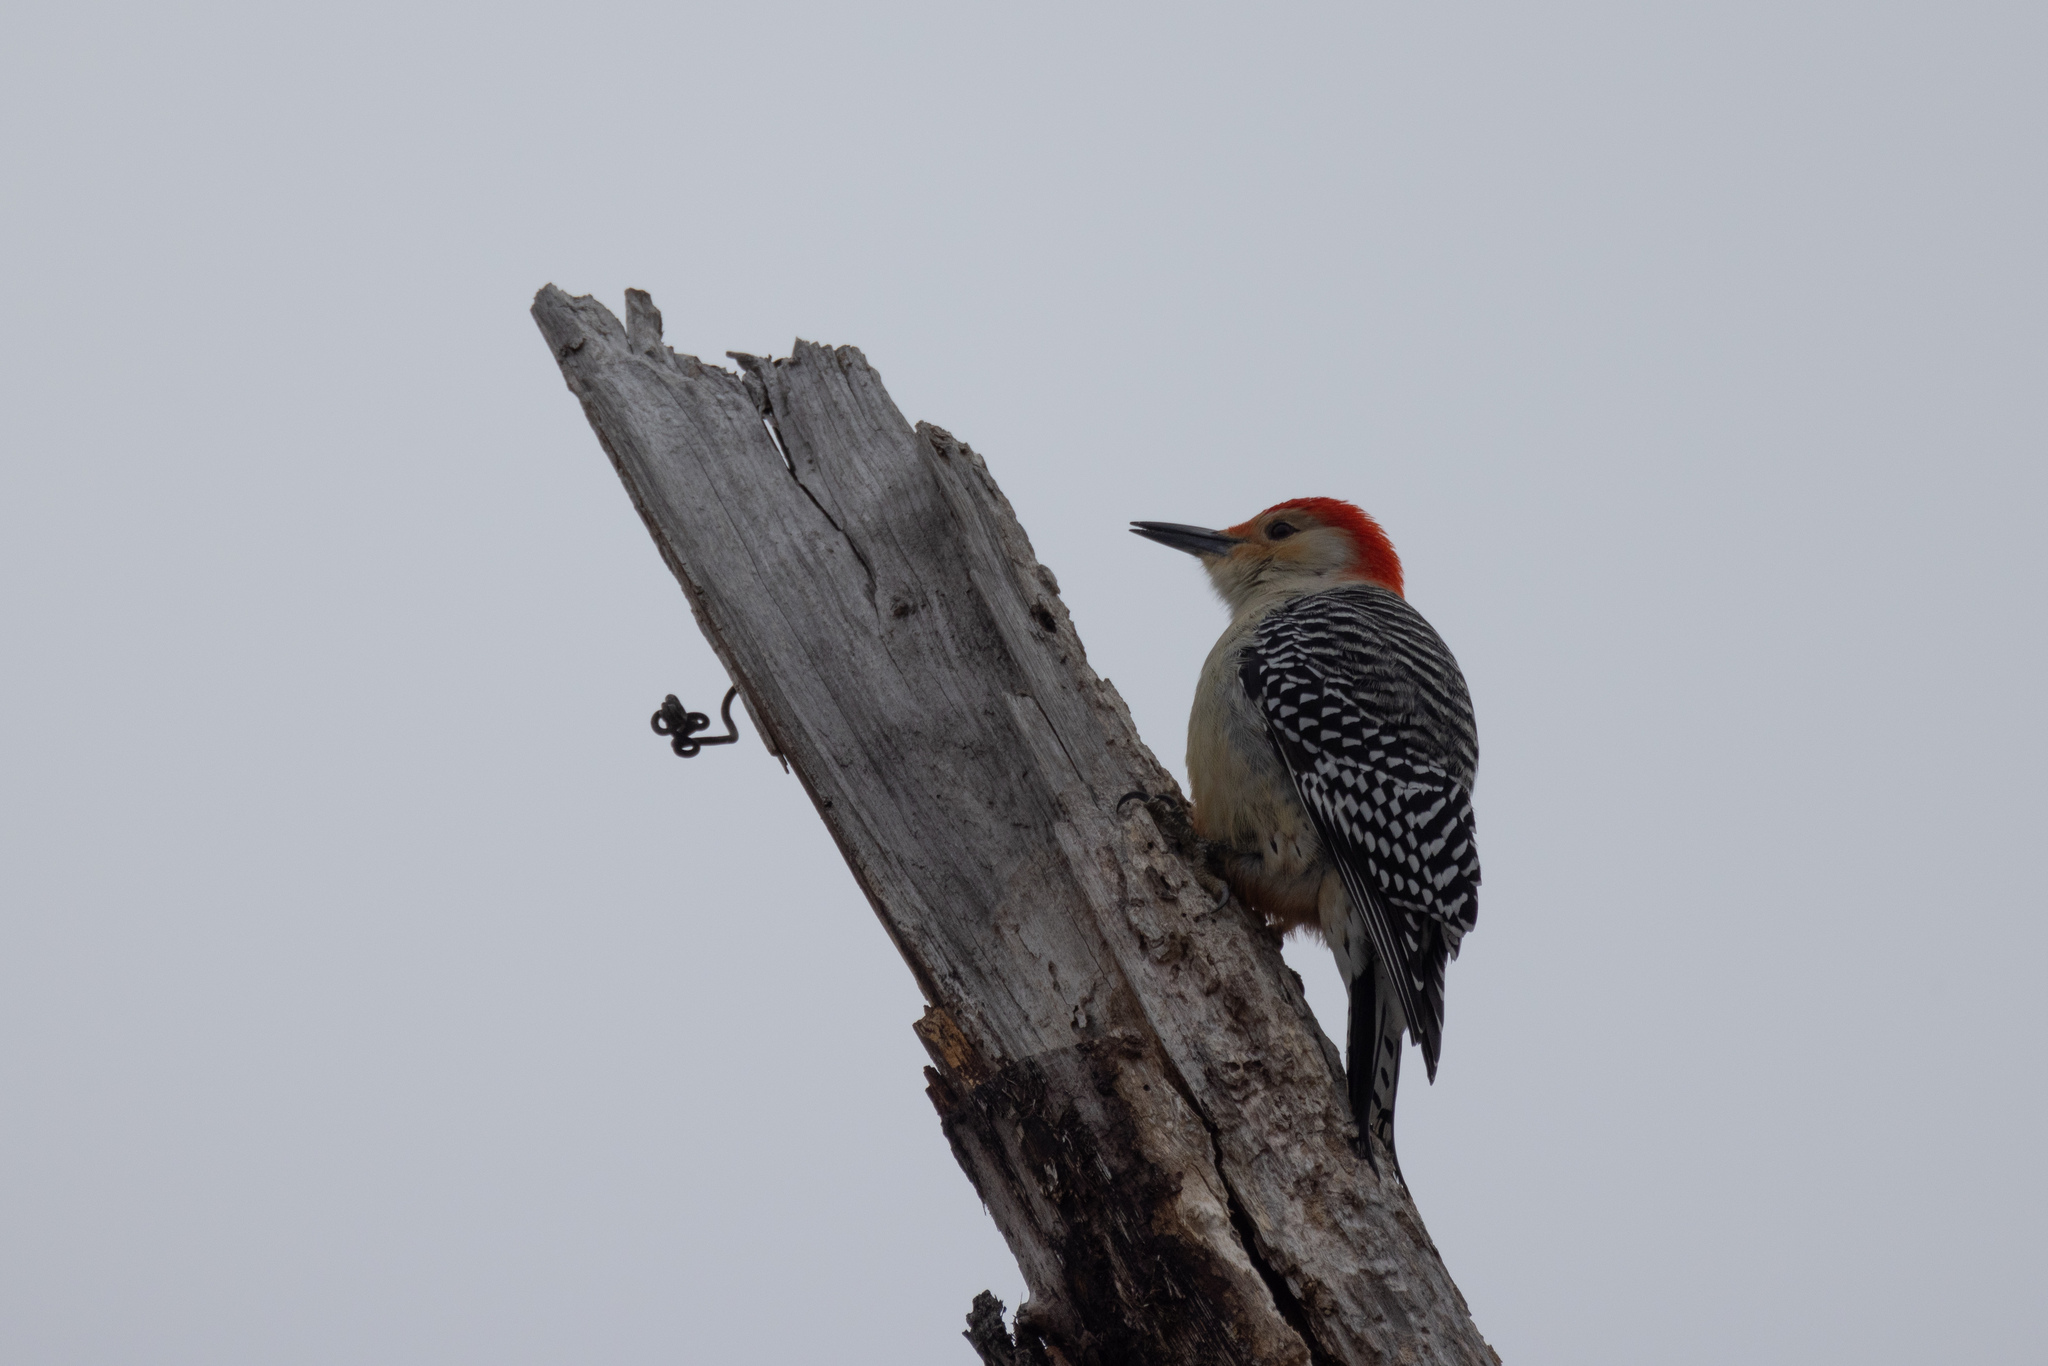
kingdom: Animalia
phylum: Chordata
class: Aves
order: Piciformes
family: Picidae
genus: Melanerpes
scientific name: Melanerpes carolinus
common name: Red-bellied woodpecker
